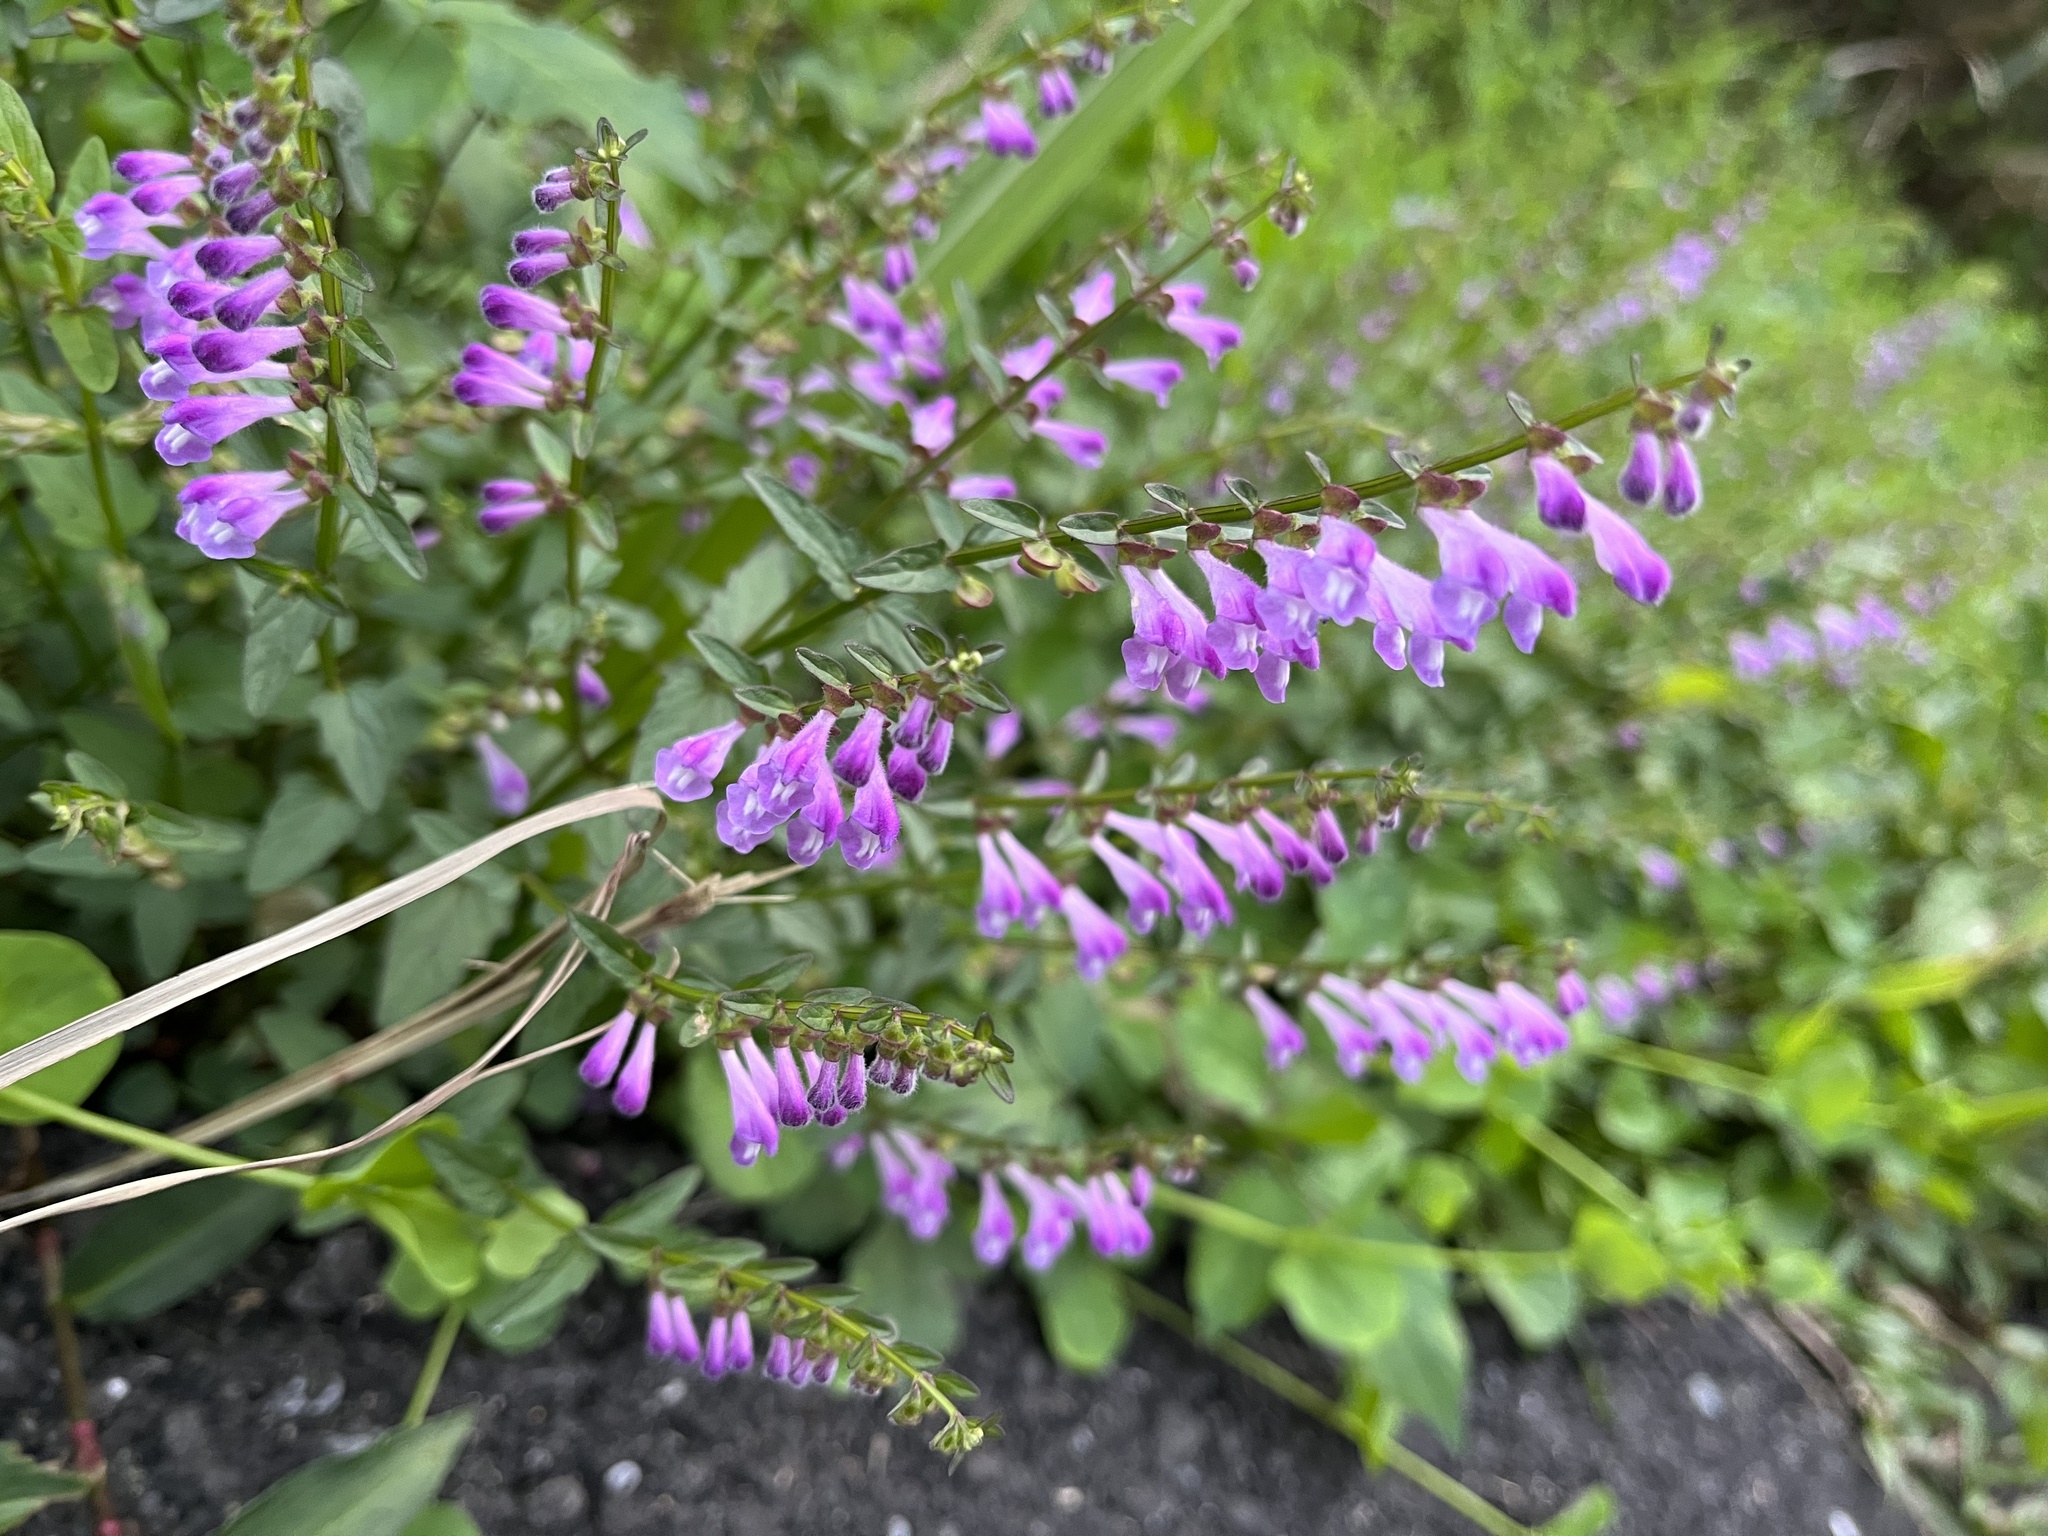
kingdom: Plantae
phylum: Tracheophyta
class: Magnoliopsida
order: Lamiales
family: Lamiaceae
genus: Scutellaria
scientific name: Scutellaria barbata
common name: Barbed skullcap
